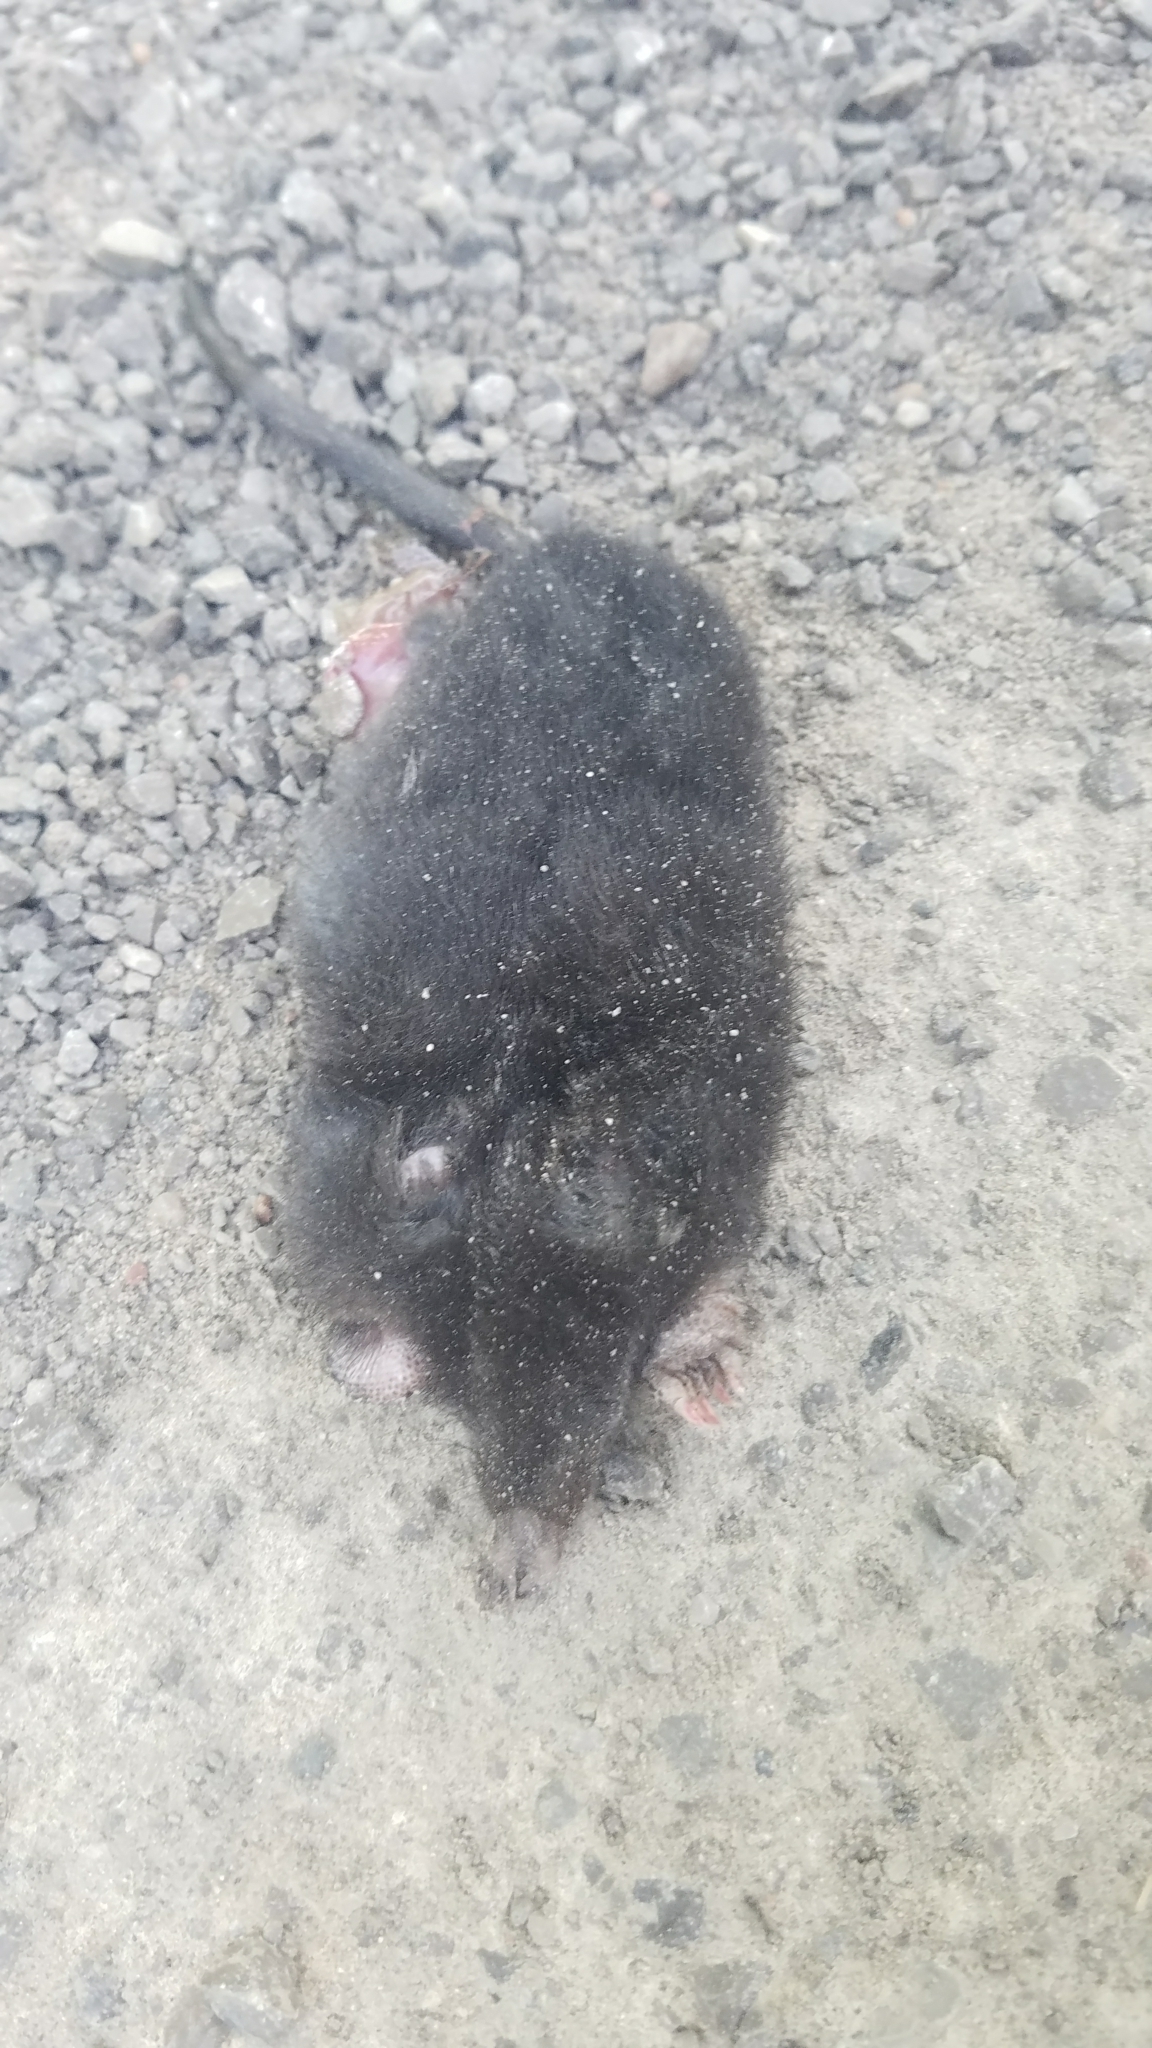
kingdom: Animalia
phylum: Chordata
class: Mammalia
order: Soricomorpha
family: Talpidae
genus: Condylura
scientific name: Condylura cristata
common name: Star-nosed mole
